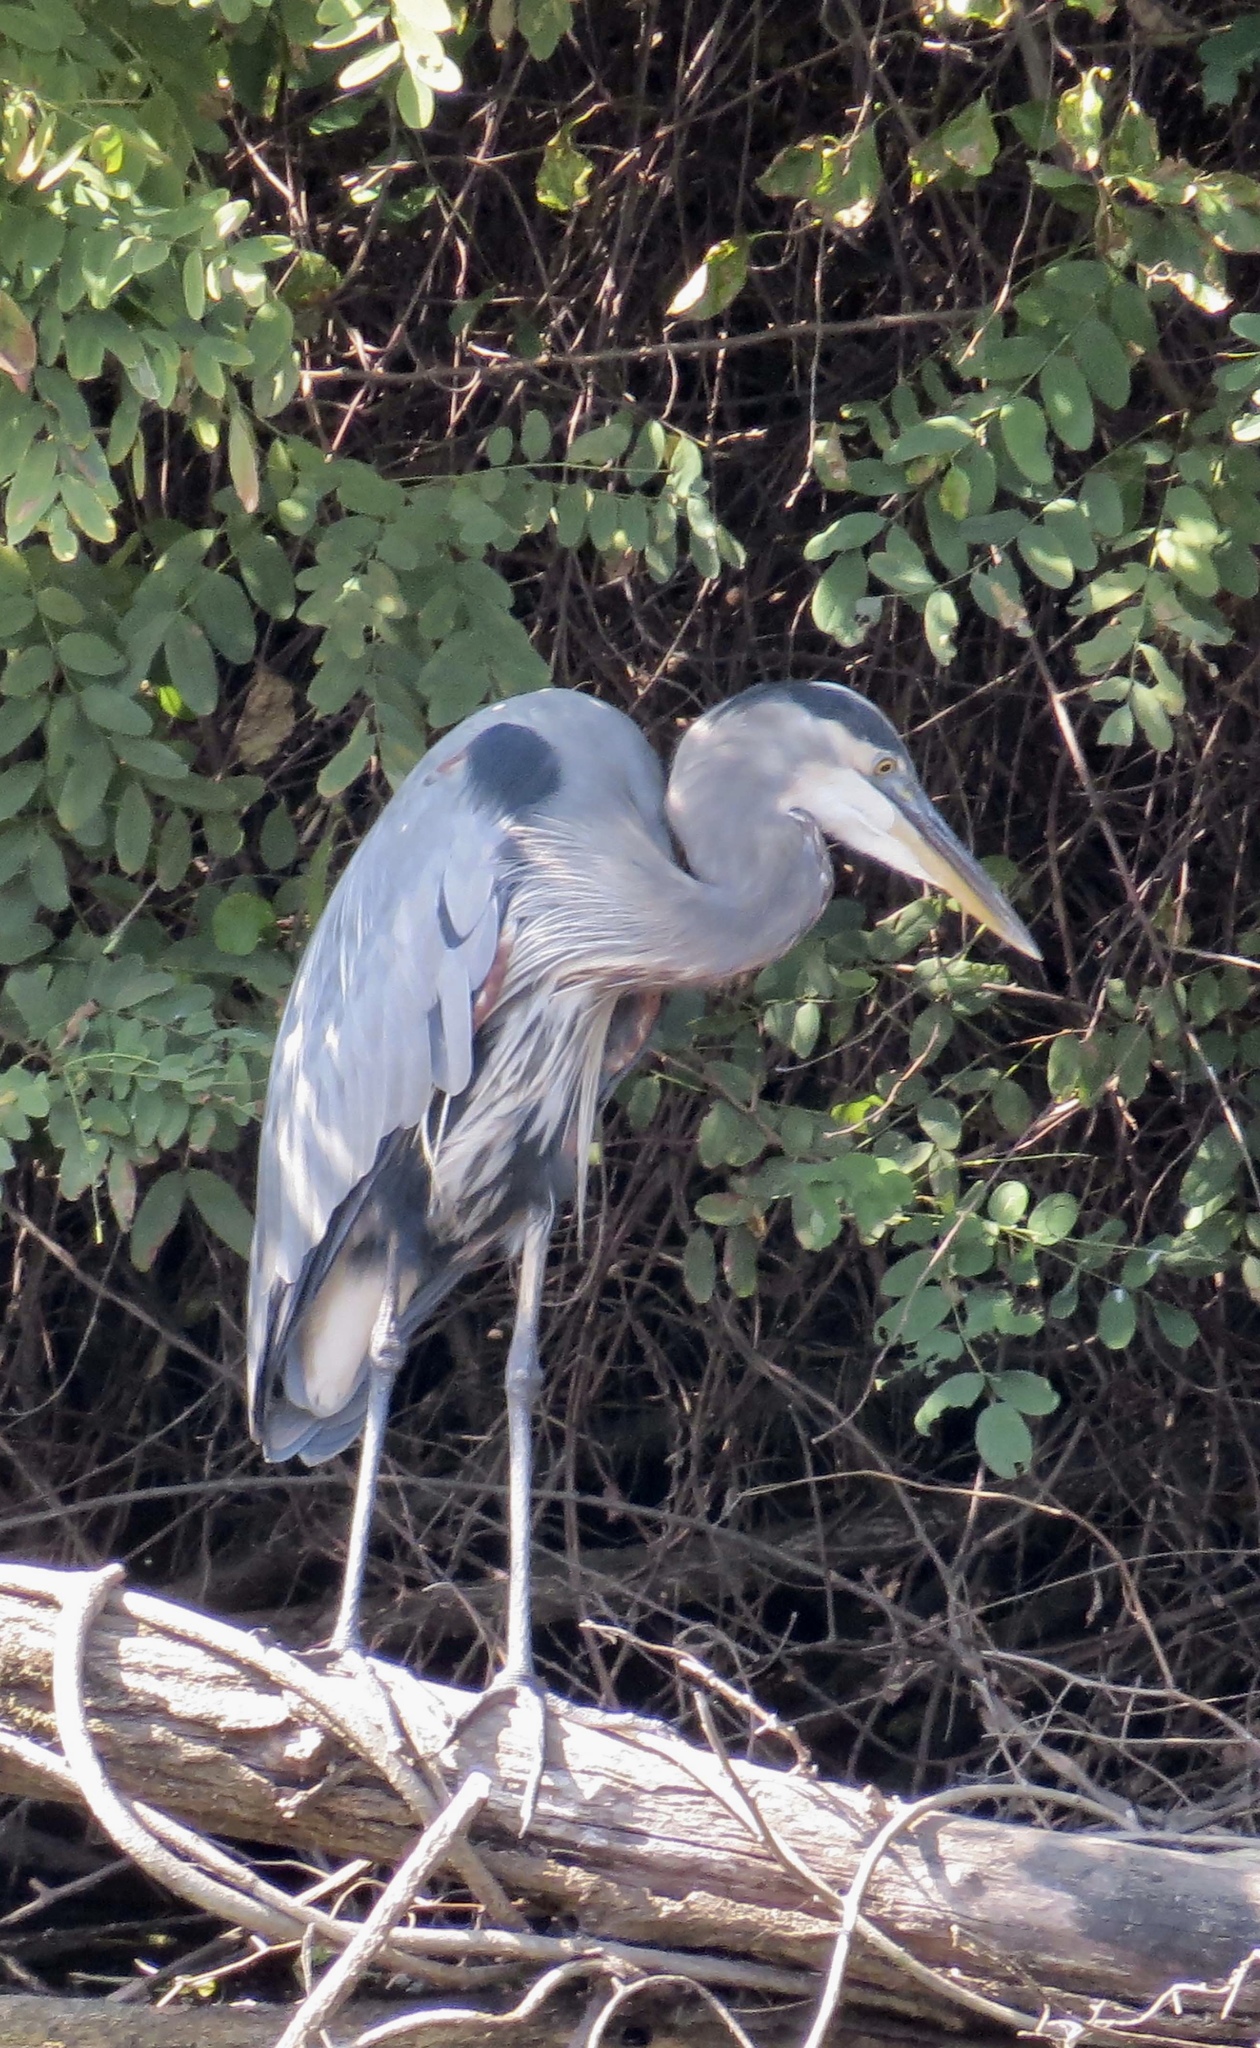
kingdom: Animalia
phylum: Chordata
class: Aves
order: Pelecaniformes
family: Ardeidae
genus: Ardea
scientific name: Ardea herodias
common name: Great blue heron
